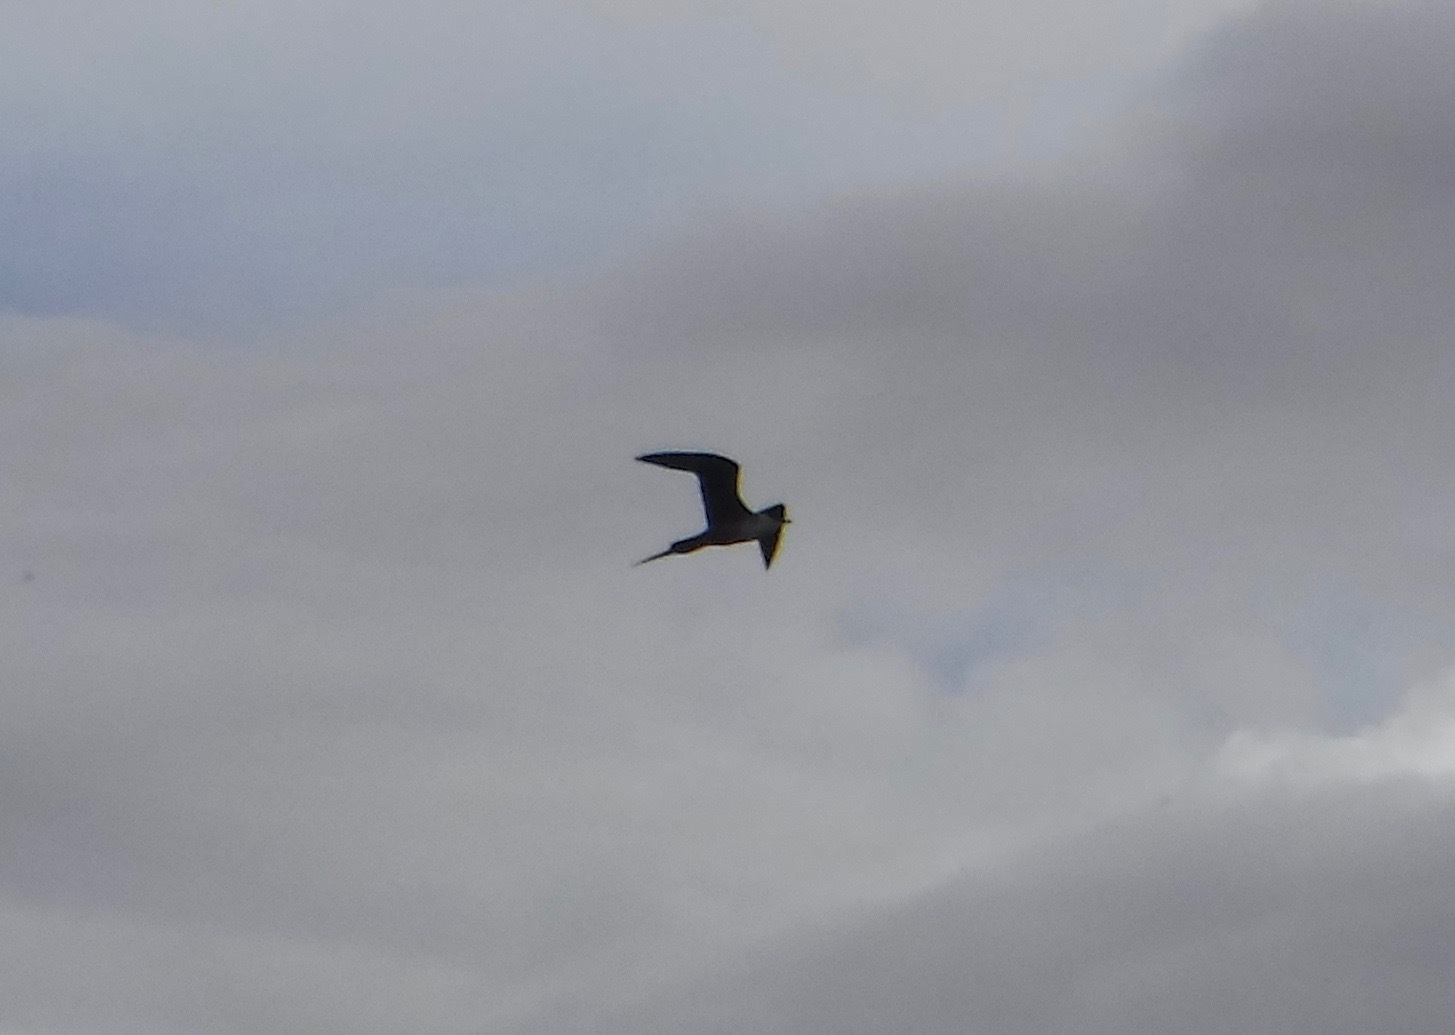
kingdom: Animalia
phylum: Chordata
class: Aves
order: Charadriiformes
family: Stercorariidae
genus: Stercorarius
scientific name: Stercorarius longicaudus
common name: Long-tailed jaeger
